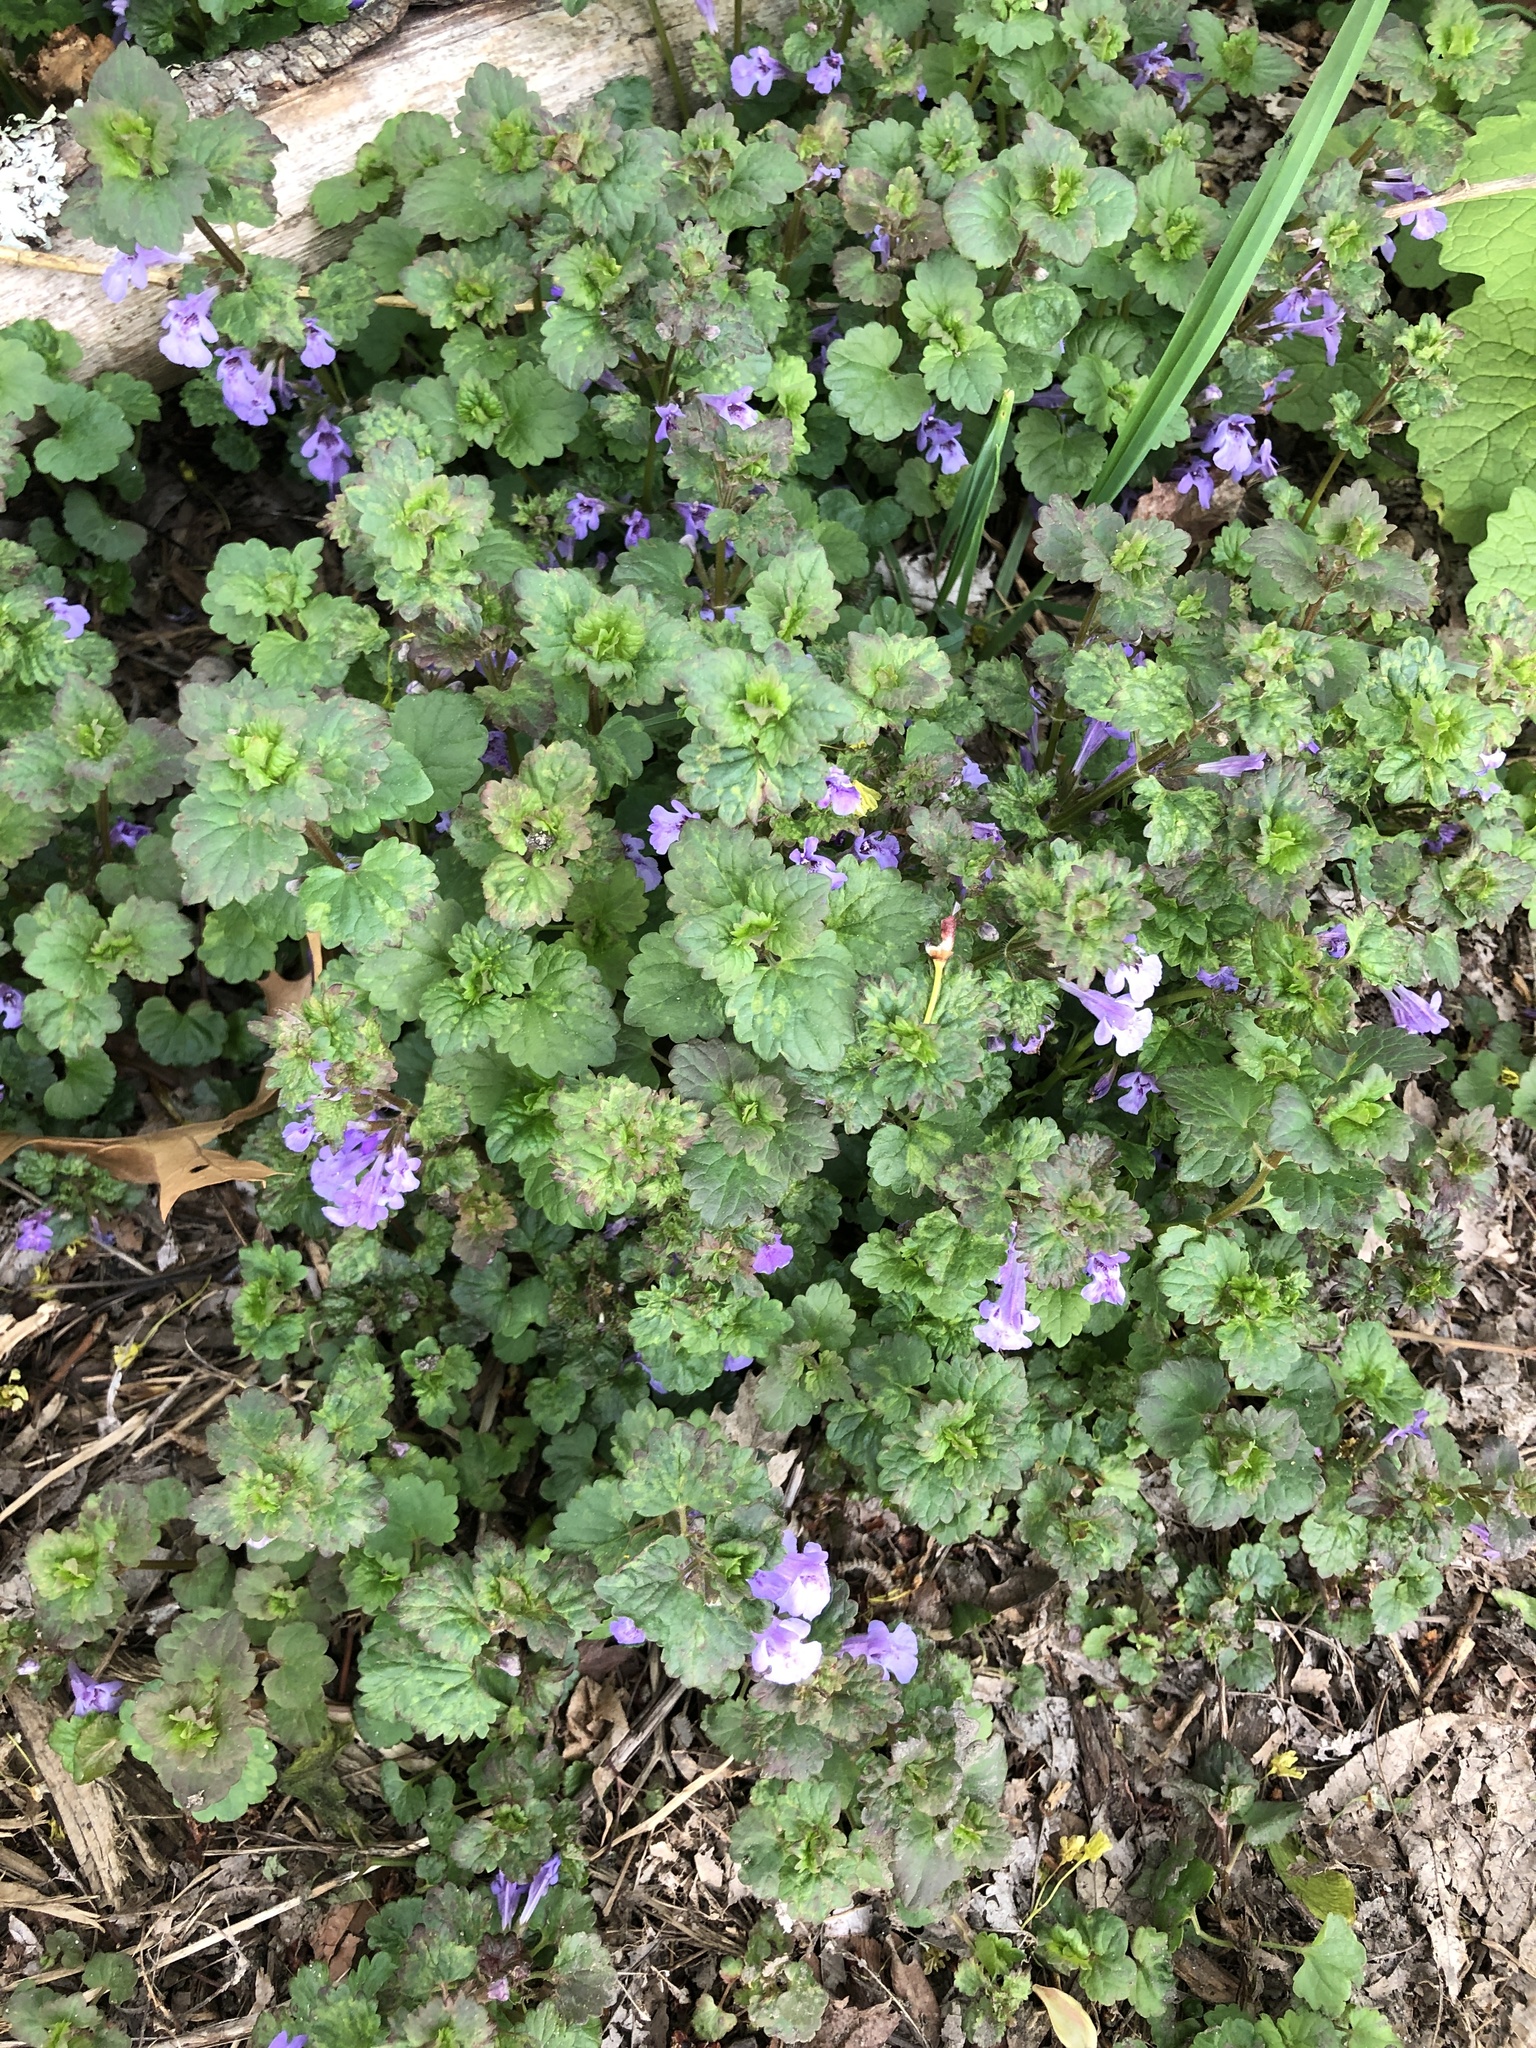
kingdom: Plantae
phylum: Tracheophyta
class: Magnoliopsida
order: Lamiales
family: Lamiaceae
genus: Glechoma
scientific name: Glechoma hederacea
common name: Ground ivy
